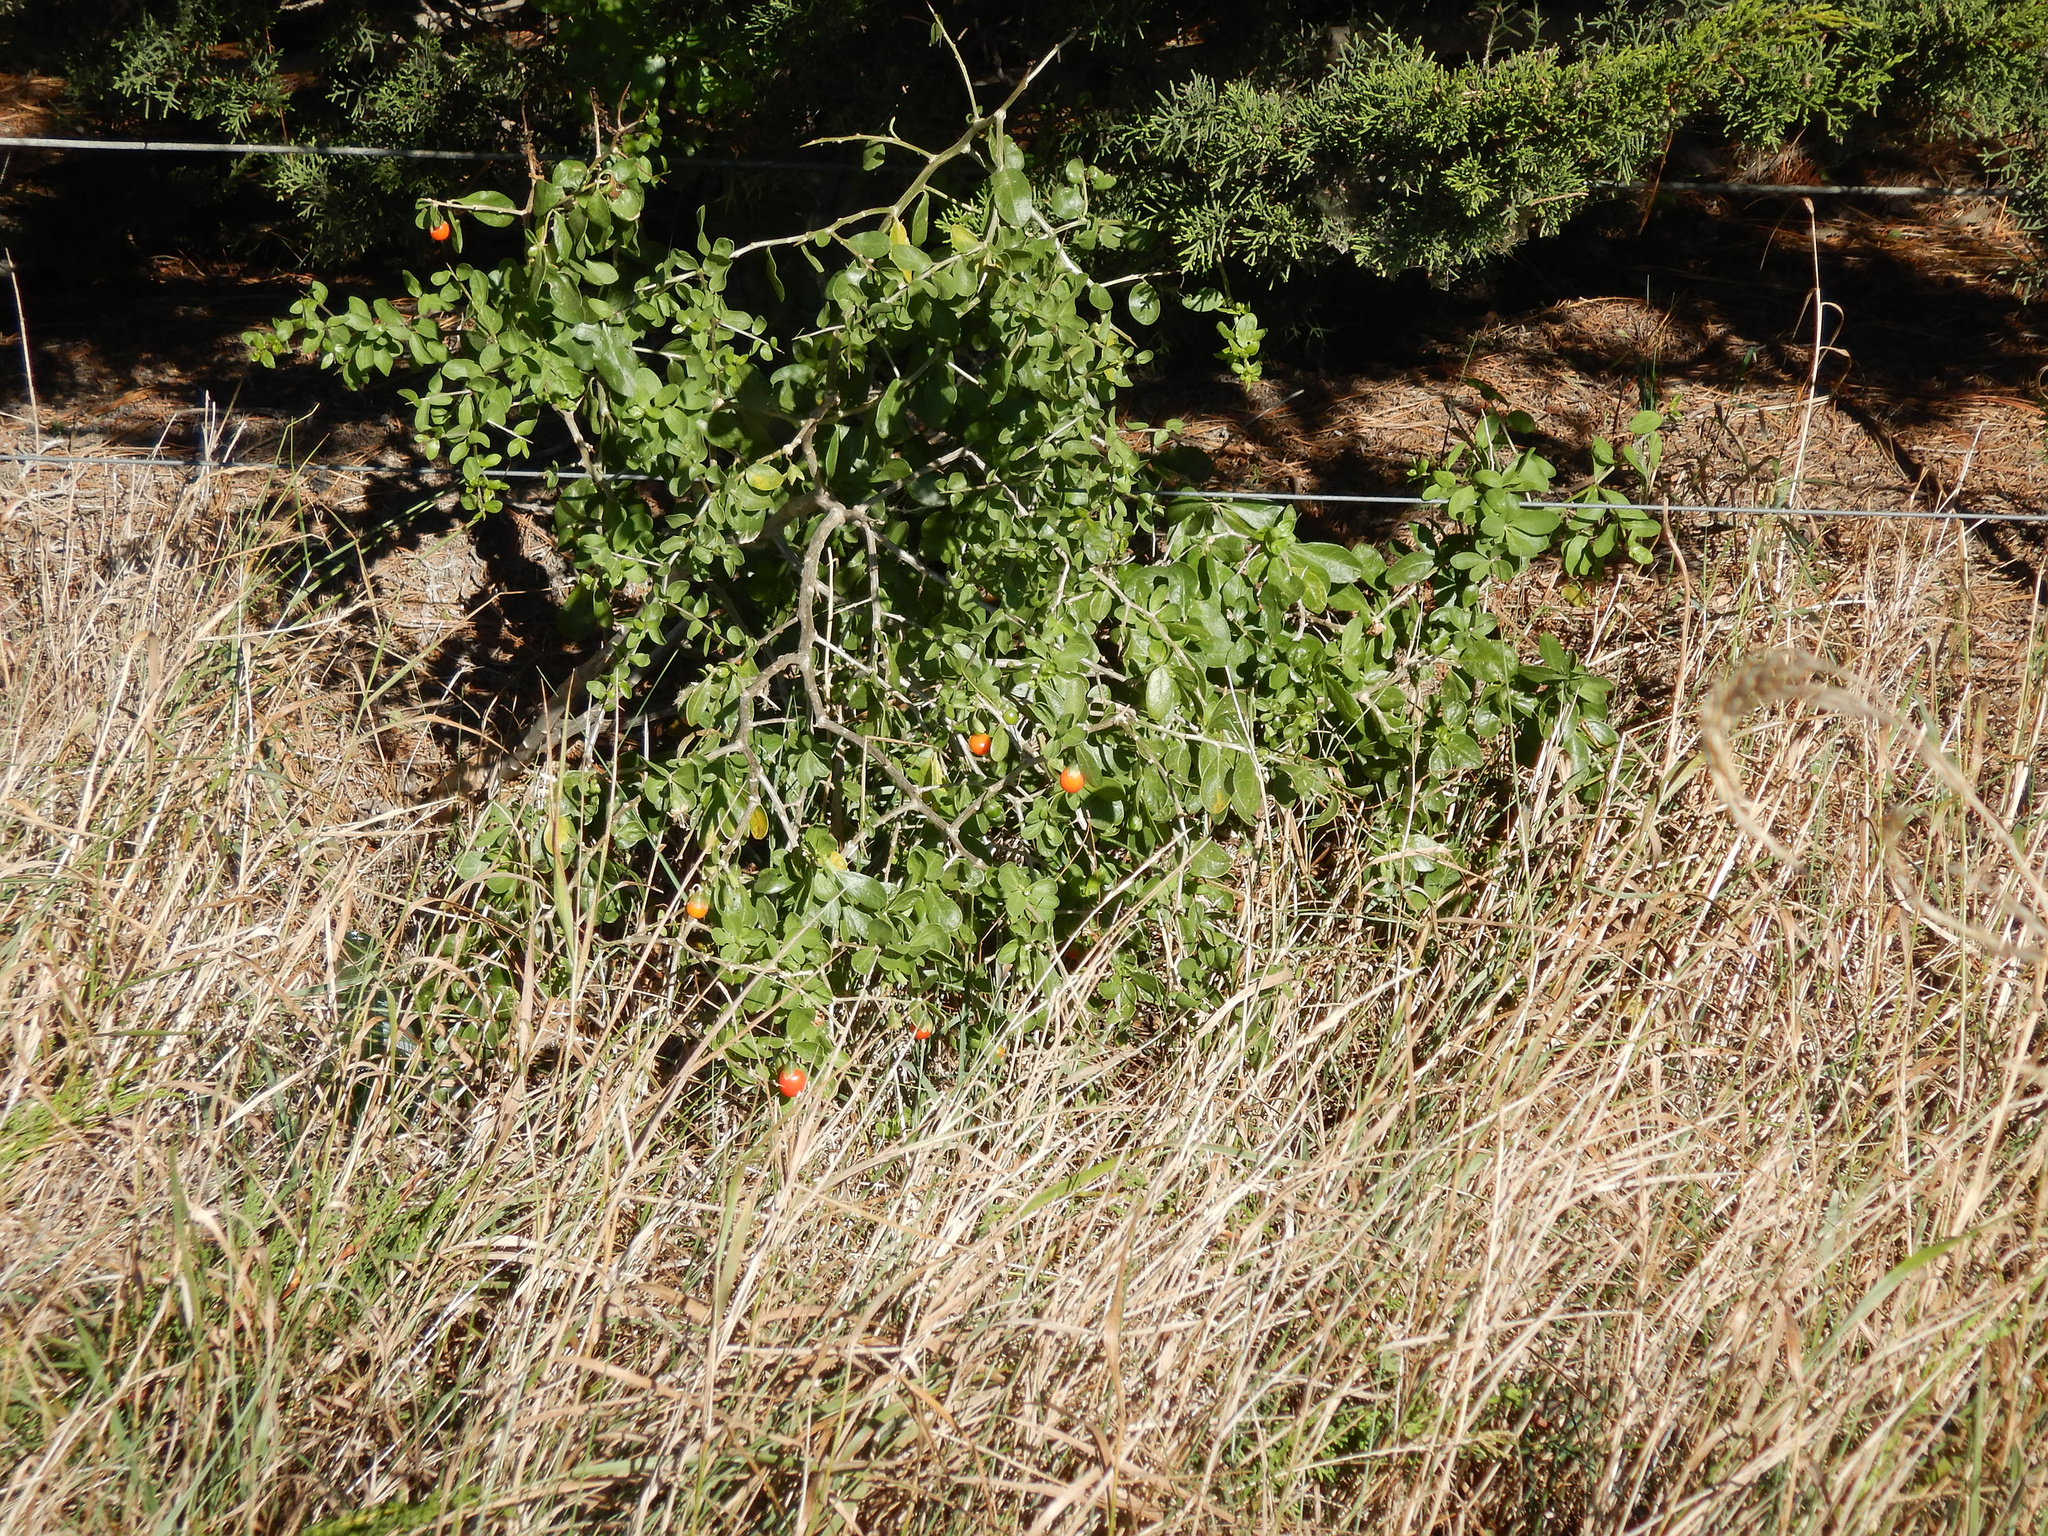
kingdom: Plantae
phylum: Tracheophyta
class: Magnoliopsida
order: Solanales
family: Solanaceae
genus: Lycium
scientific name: Lycium ferocissimum
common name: African boxthorn
